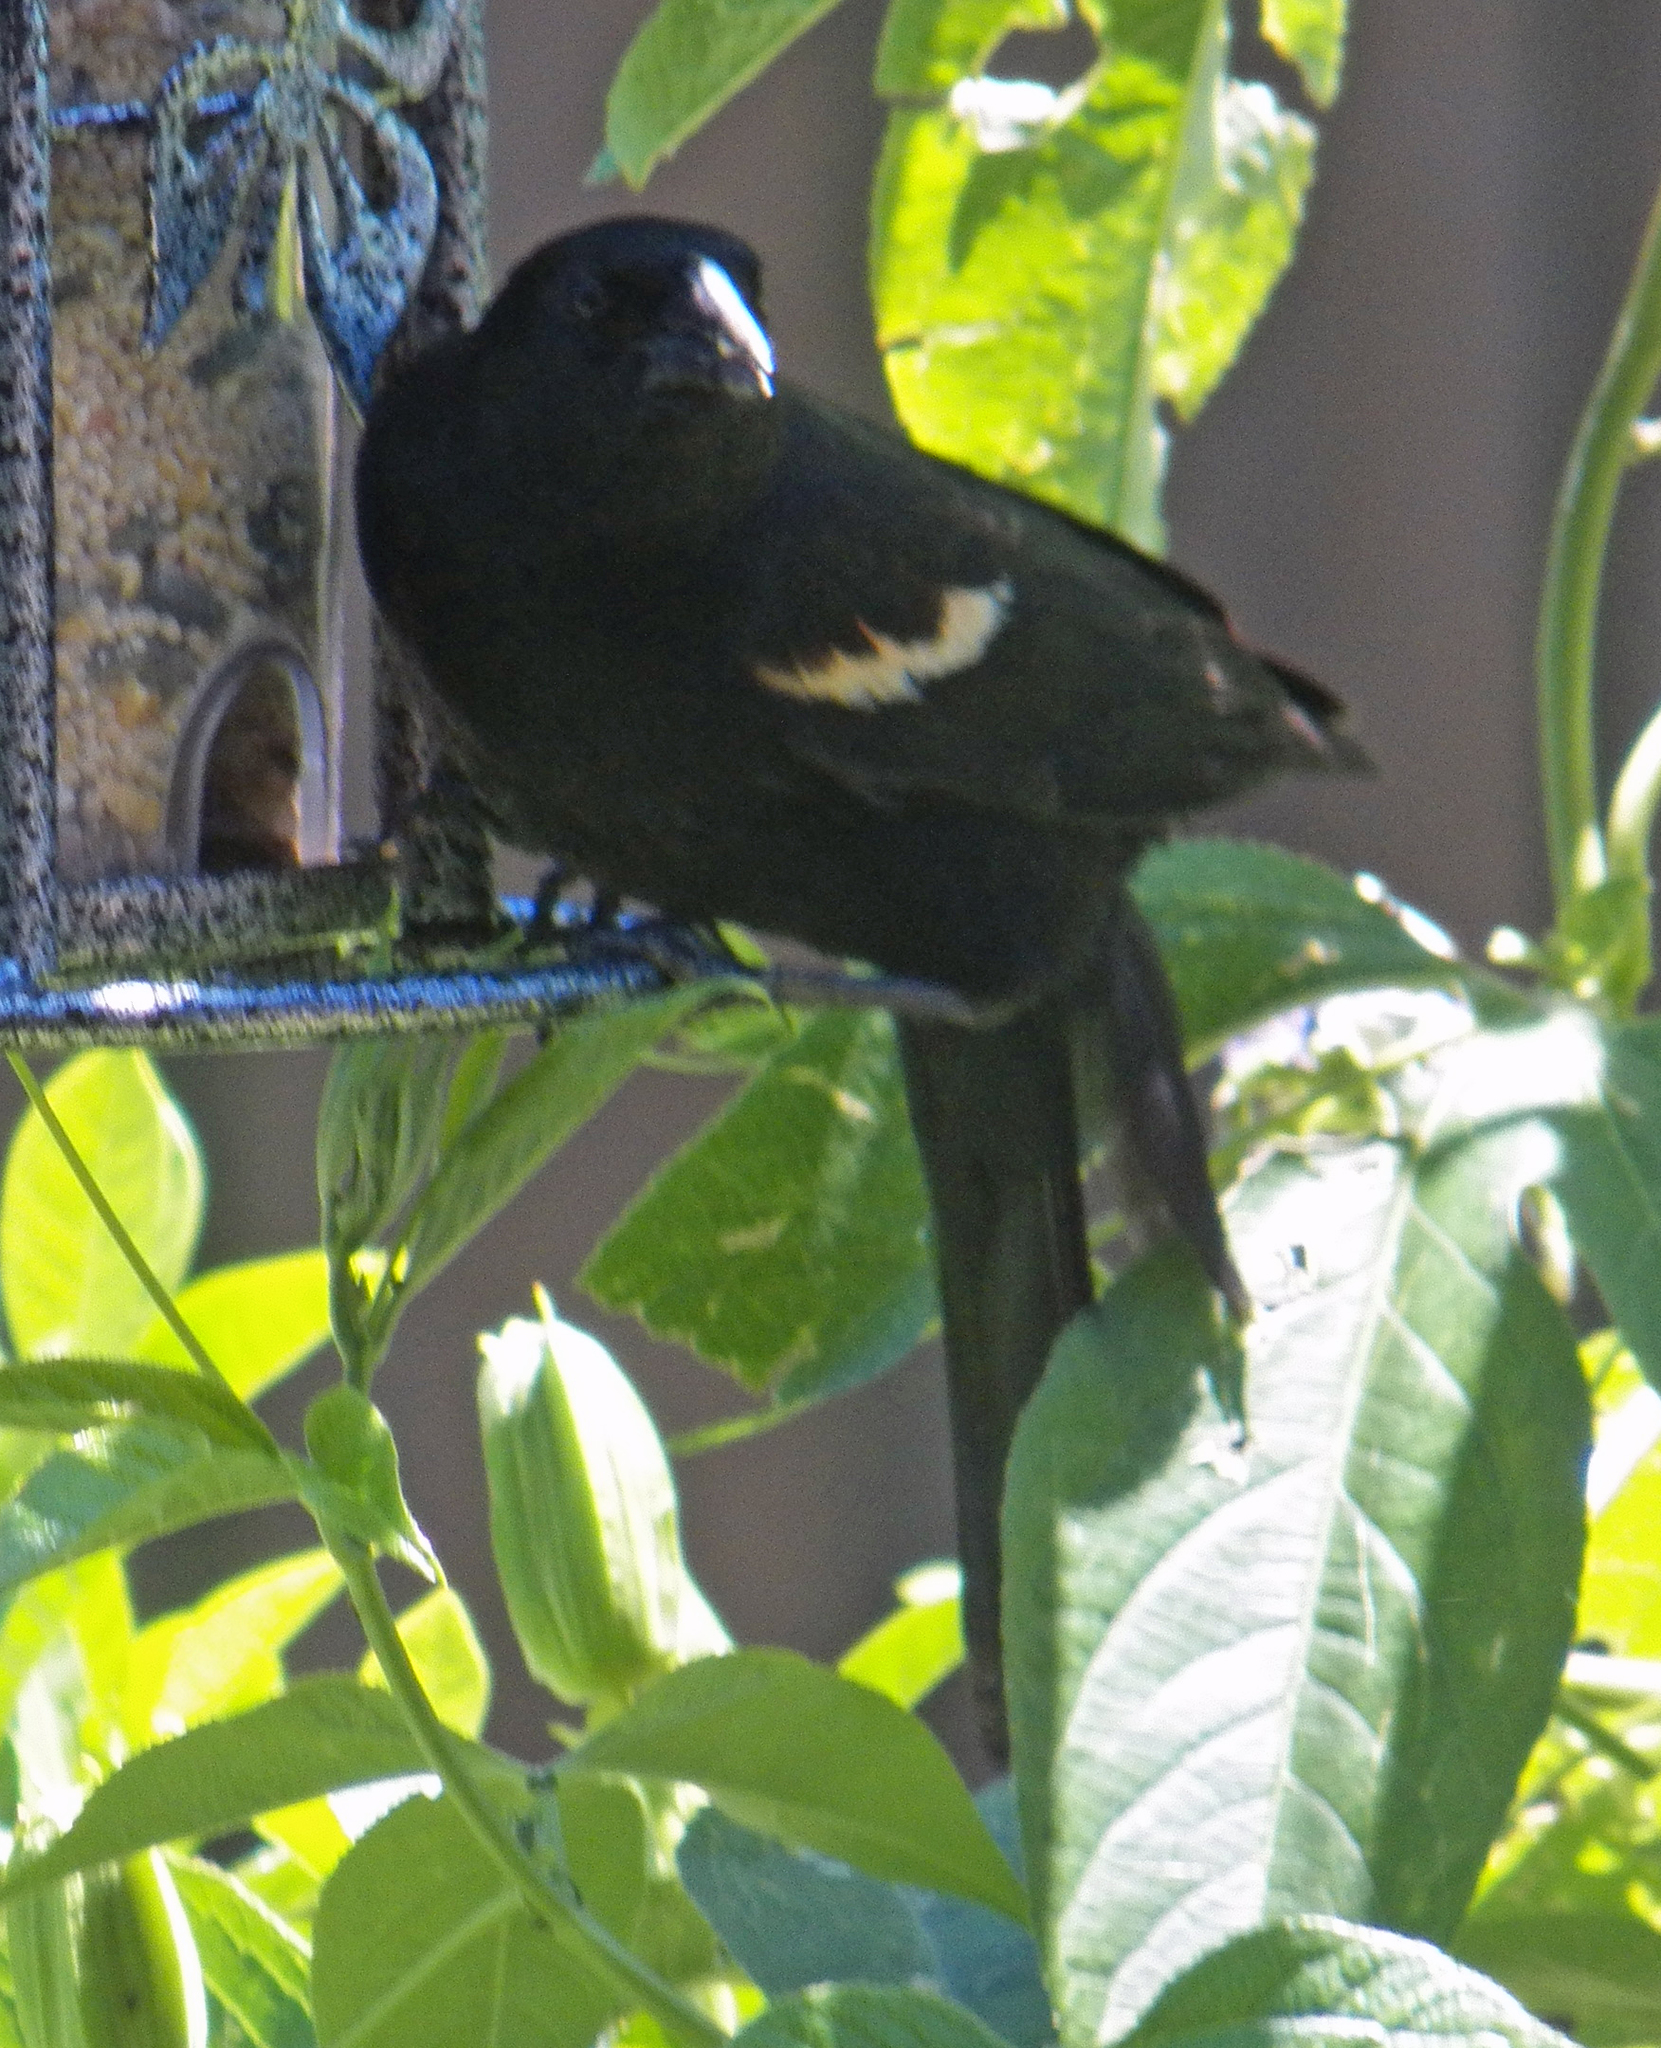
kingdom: Animalia
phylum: Chordata
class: Aves
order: Passeriformes
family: Icteridae
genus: Agelaius
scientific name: Agelaius phoeniceus
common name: Red-winged blackbird
